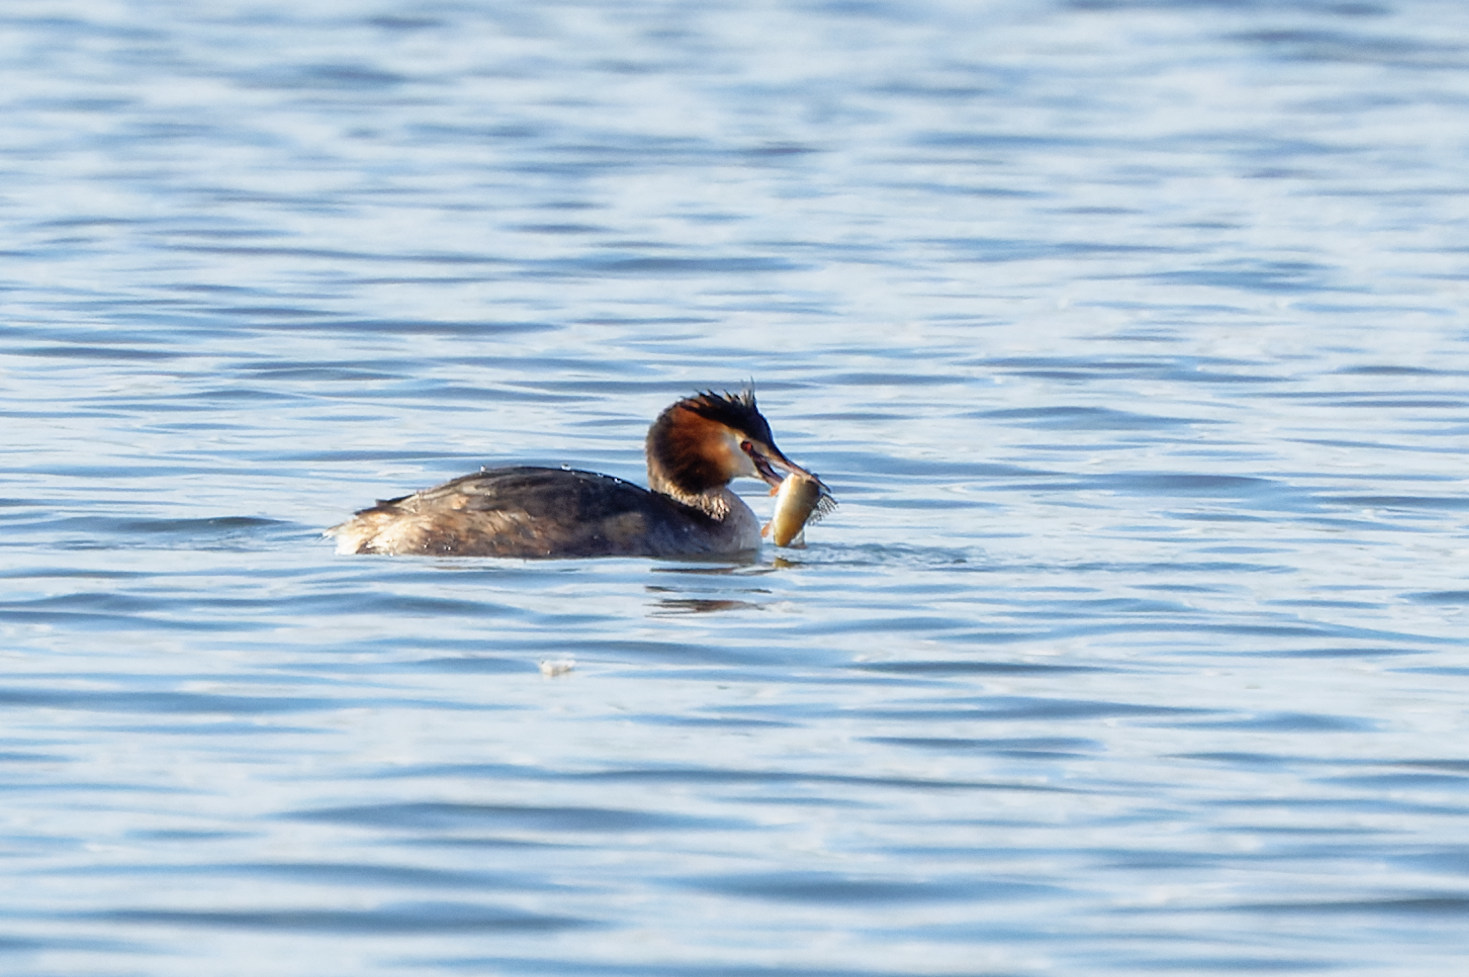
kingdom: Animalia
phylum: Chordata
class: Aves
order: Podicipediformes
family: Podicipedidae
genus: Podiceps
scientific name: Podiceps cristatus
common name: Great crested grebe
